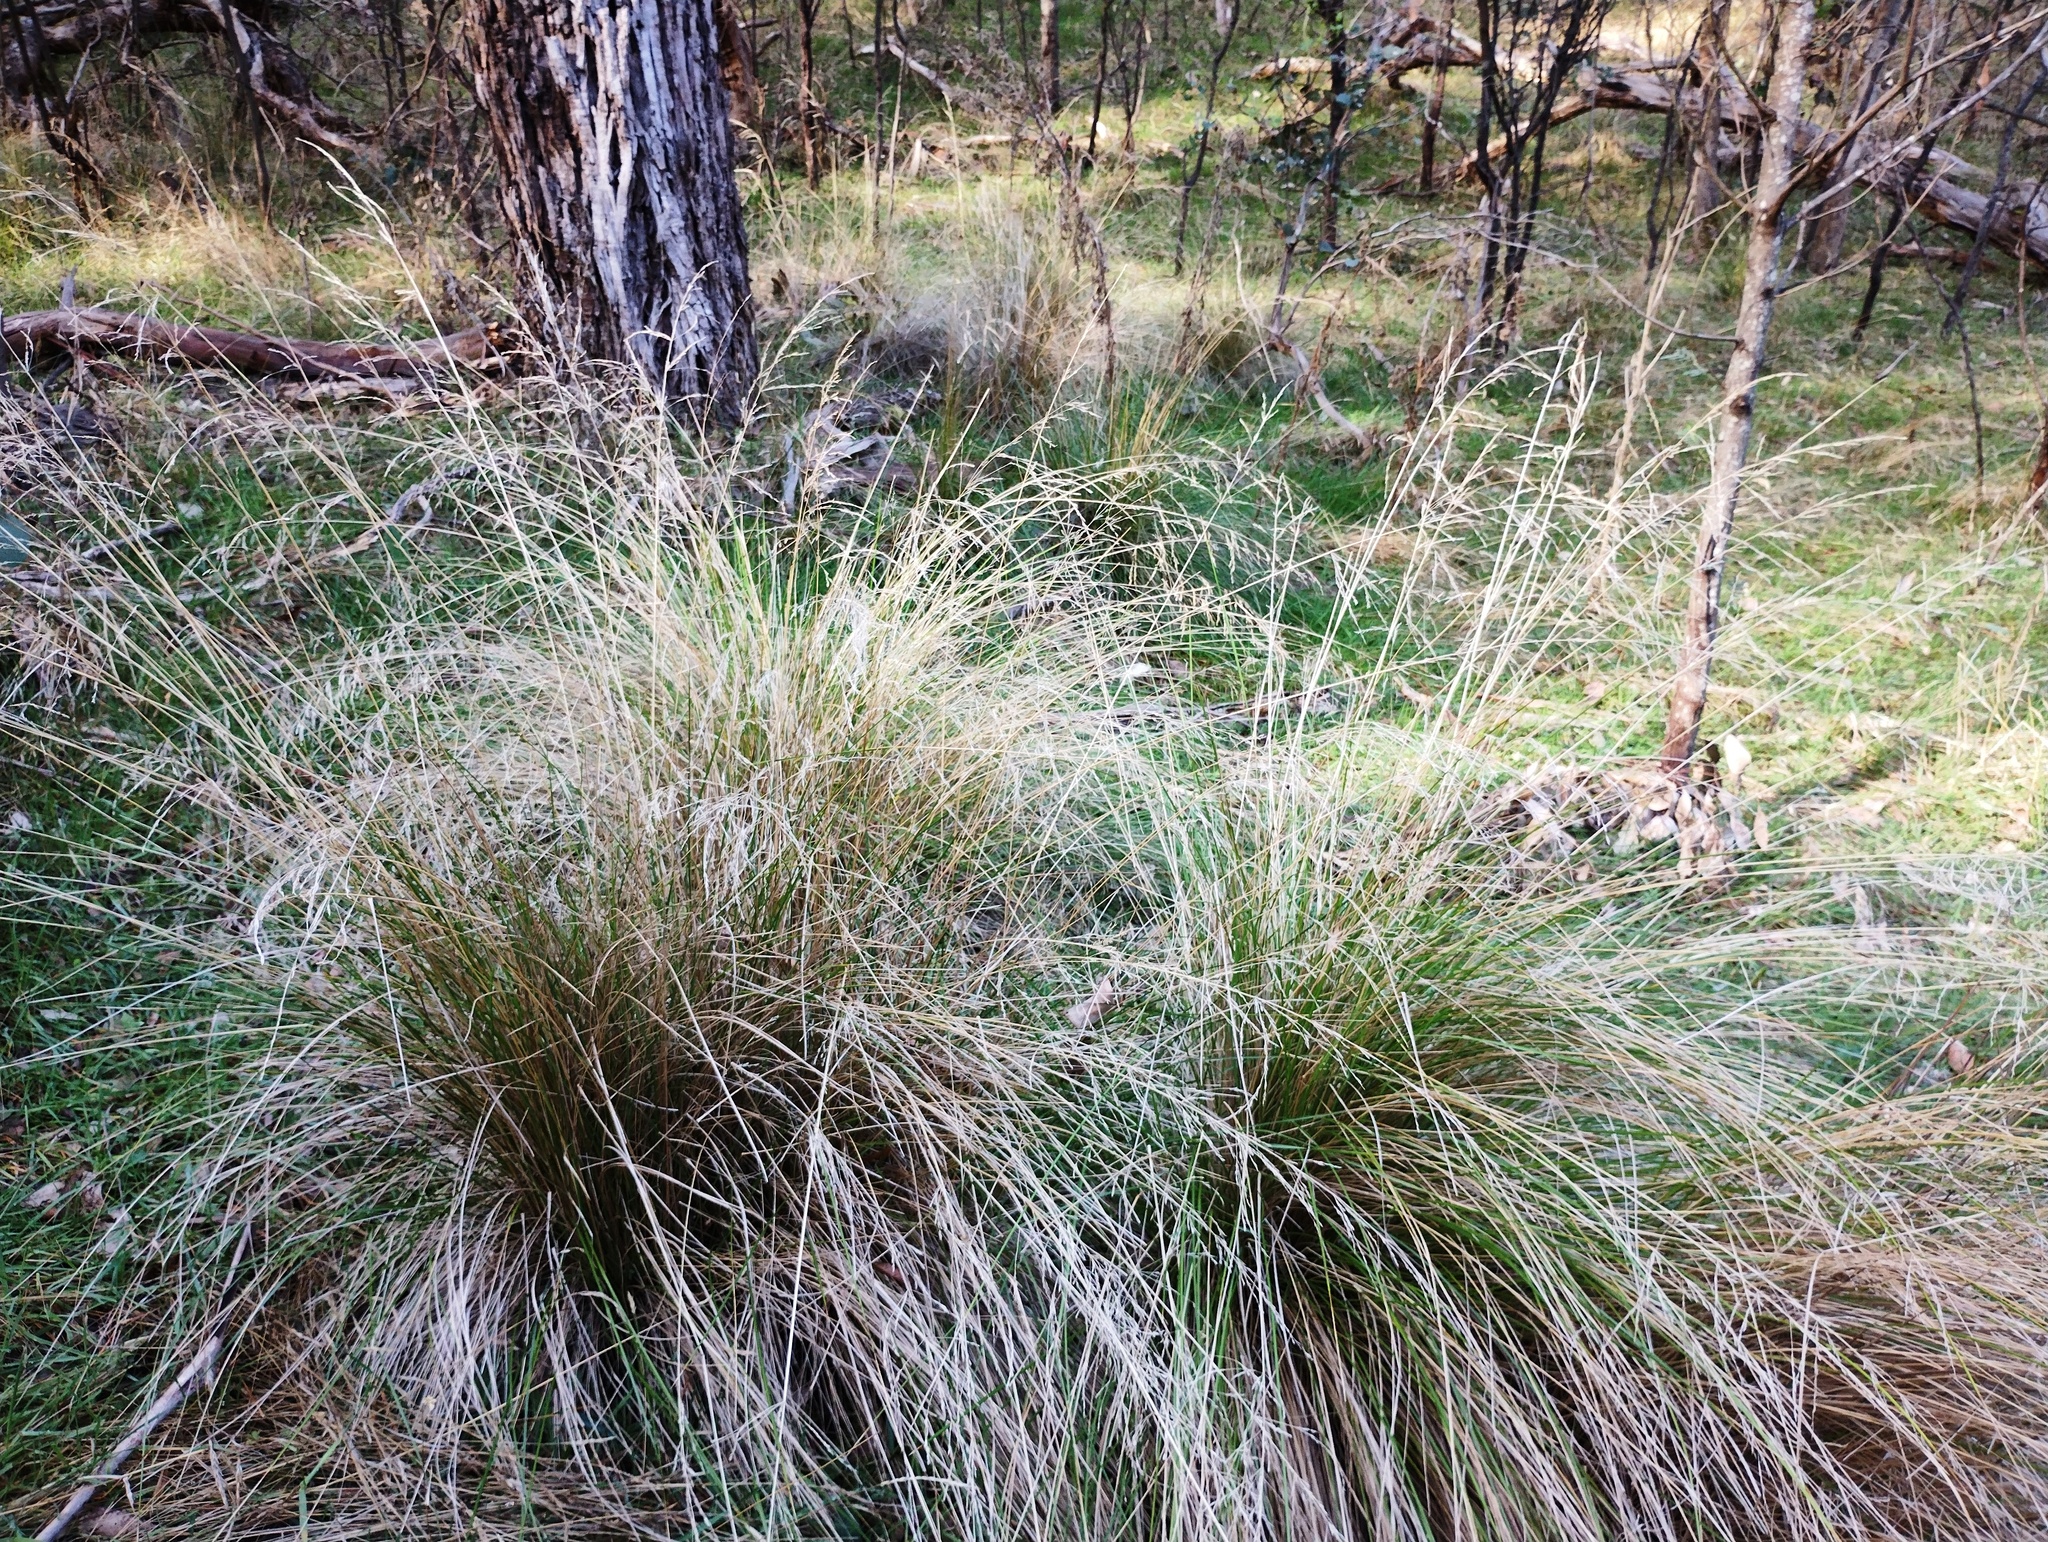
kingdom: Plantae
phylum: Tracheophyta
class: Liliopsida
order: Poales
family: Poaceae
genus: Poa
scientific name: Poa labillardierei
